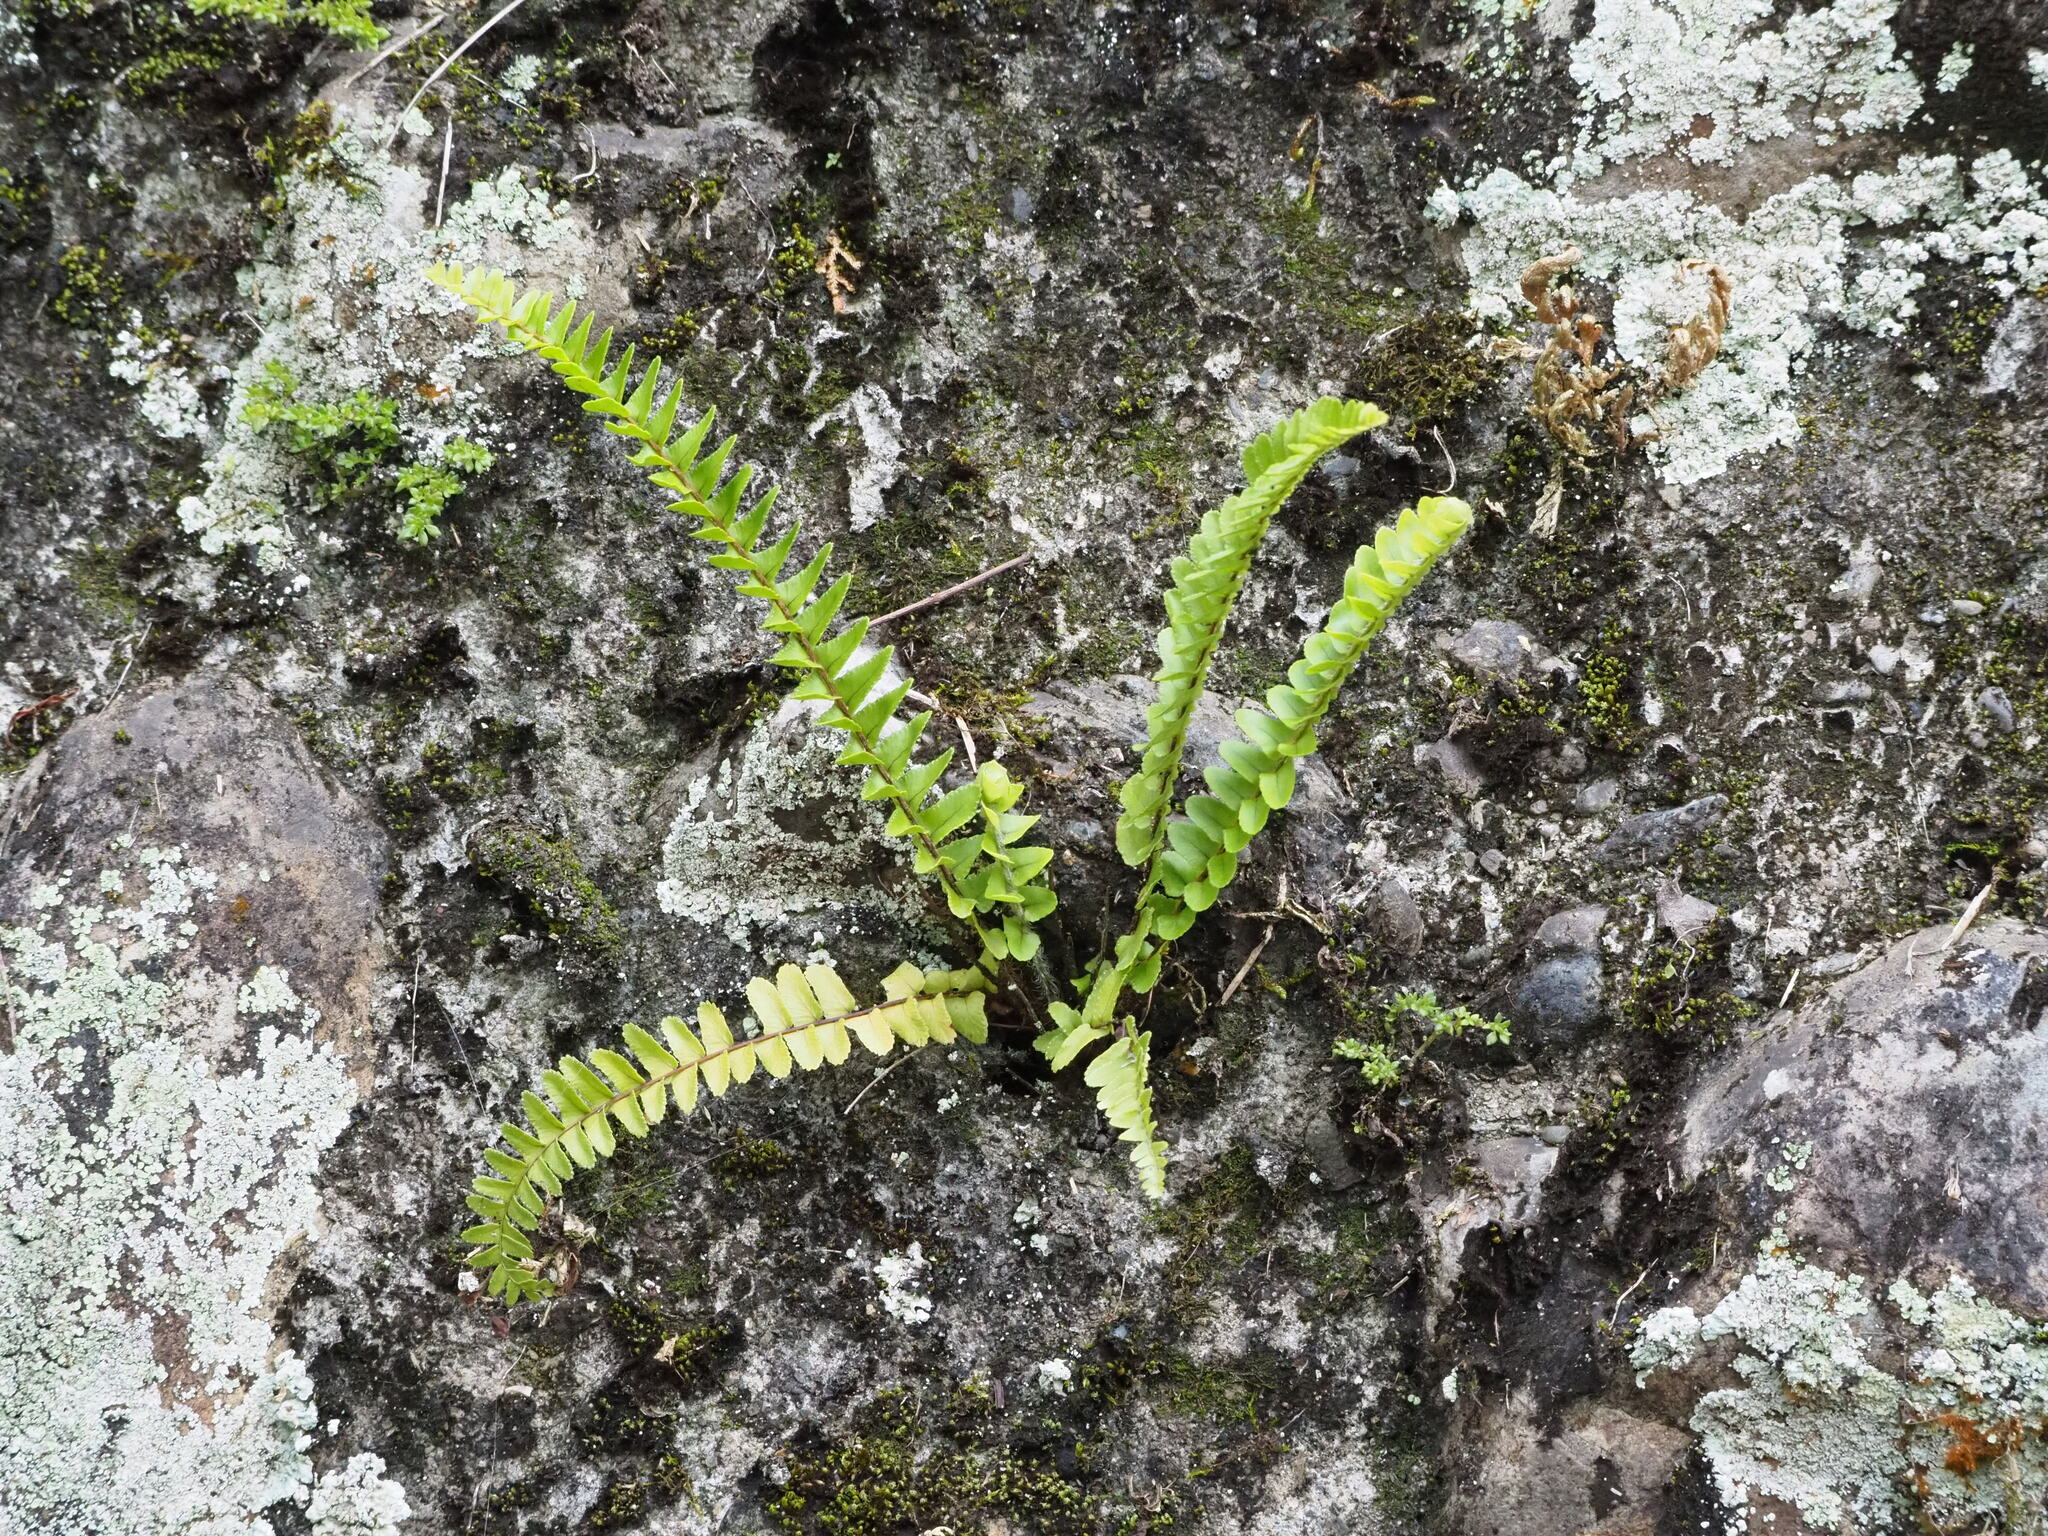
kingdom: Plantae
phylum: Tracheophyta
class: Polypodiopsida
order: Polypodiales
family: Nephrolepidaceae
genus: Nephrolepis
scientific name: Nephrolepis cordifolia
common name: Narrow swordfern
